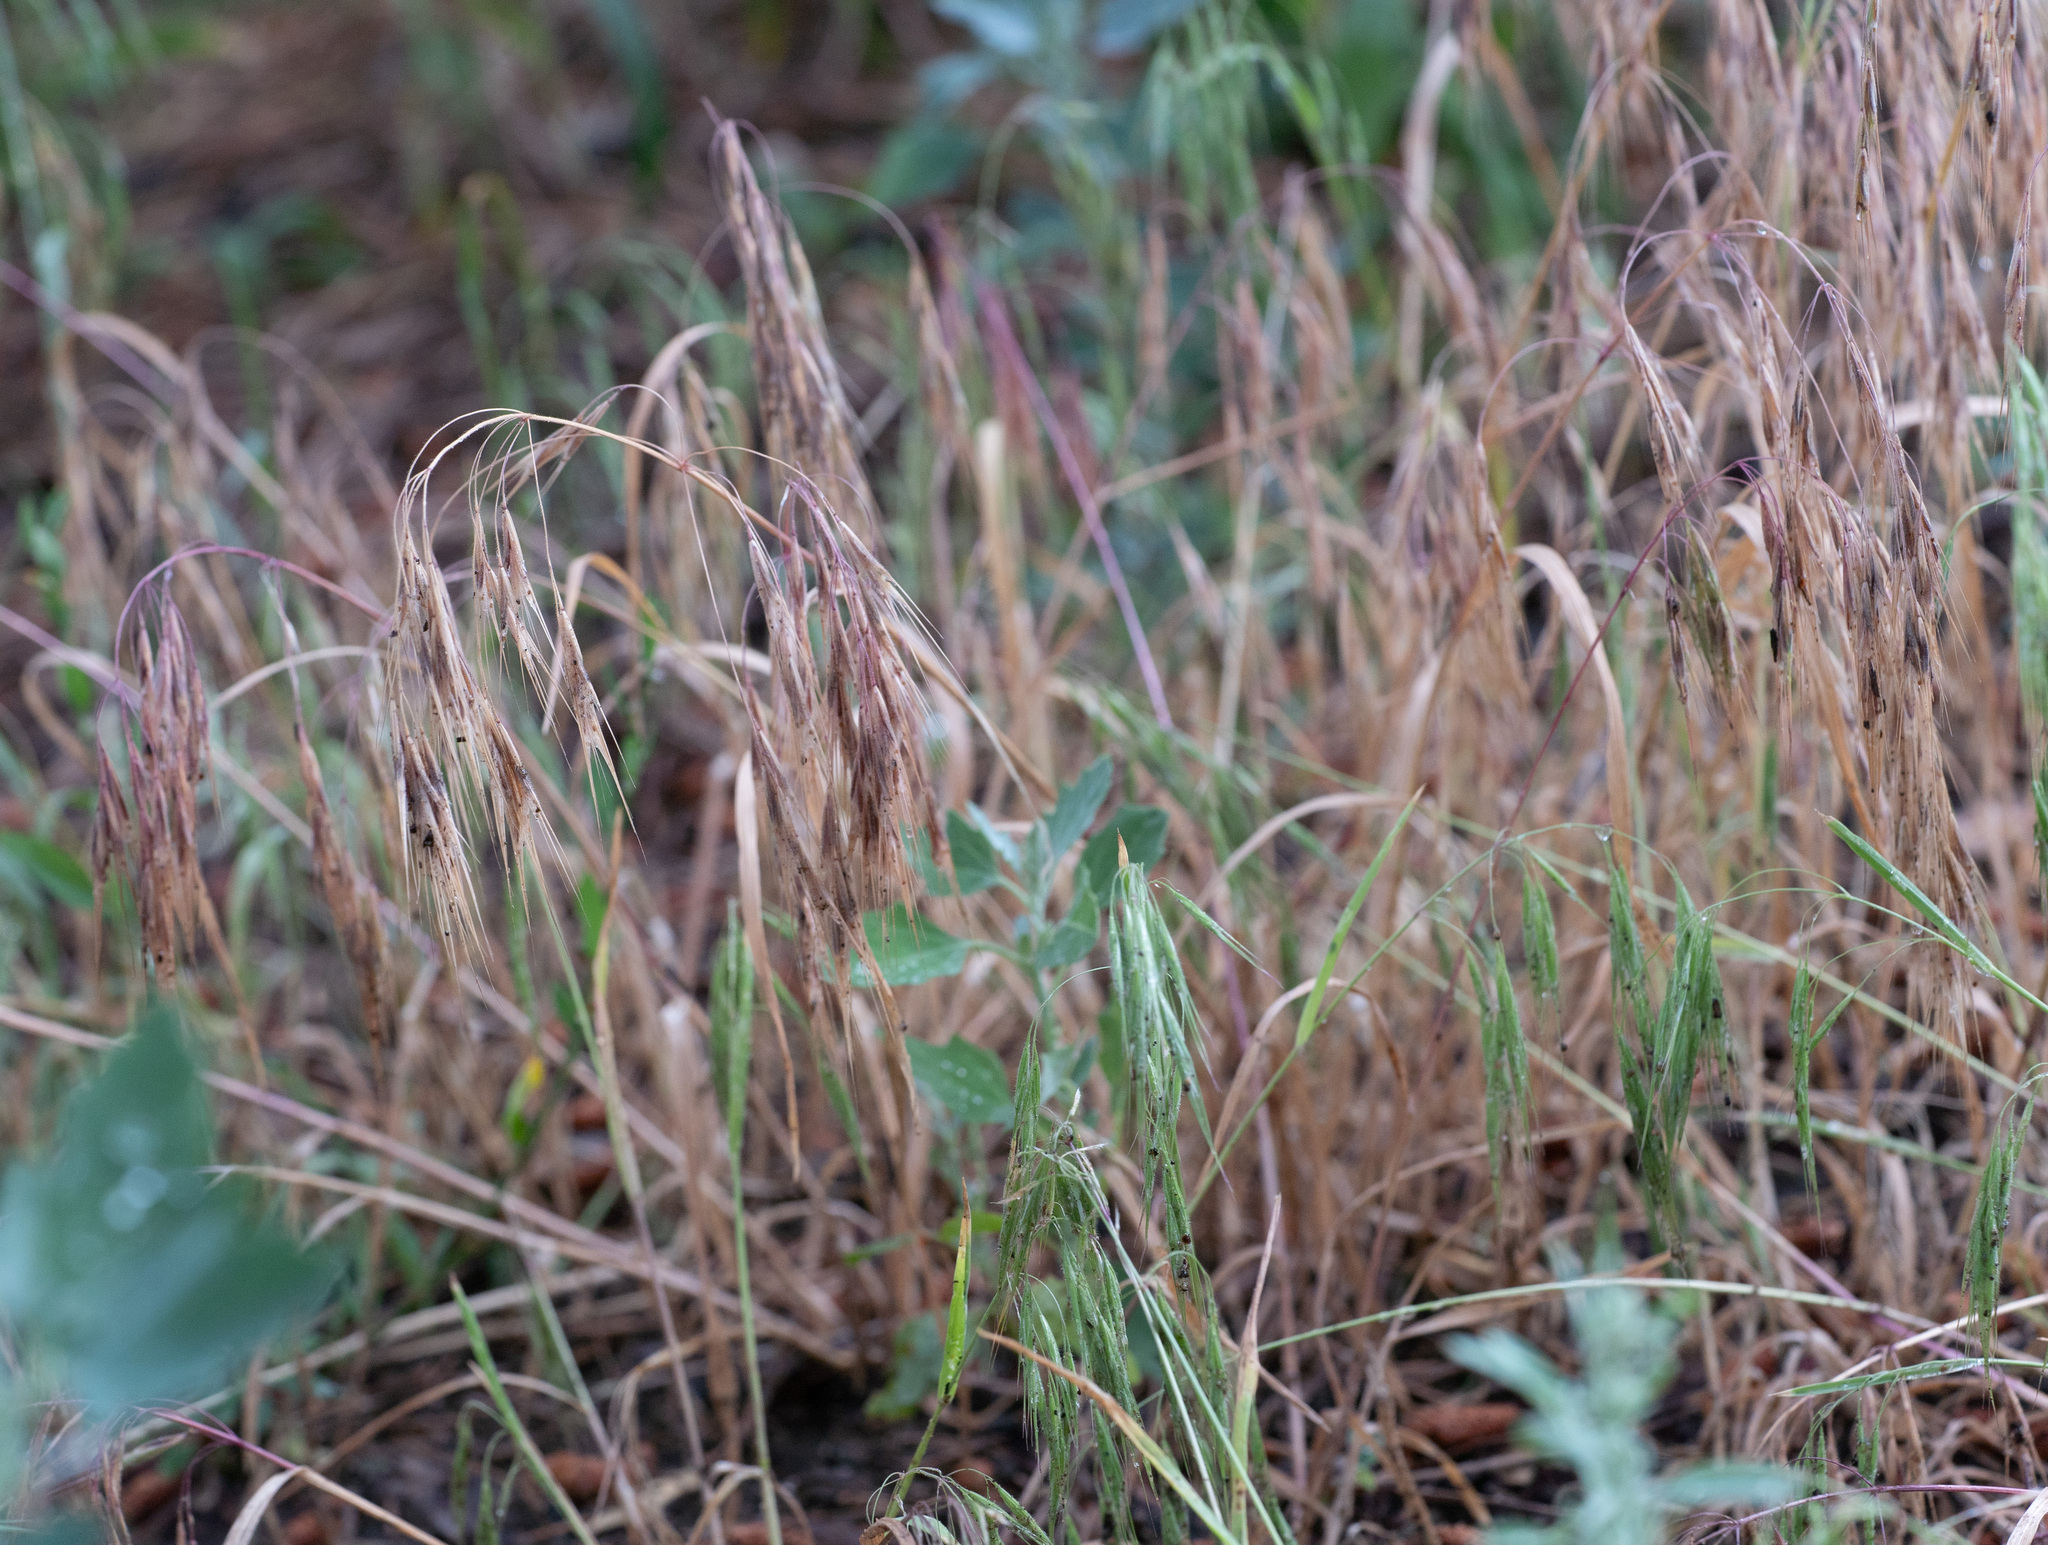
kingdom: Plantae
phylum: Tracheophyta
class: Liliopsida
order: Poales
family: Poaceae
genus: Bromus
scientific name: Bromus tectorum
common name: Cheatgrass
